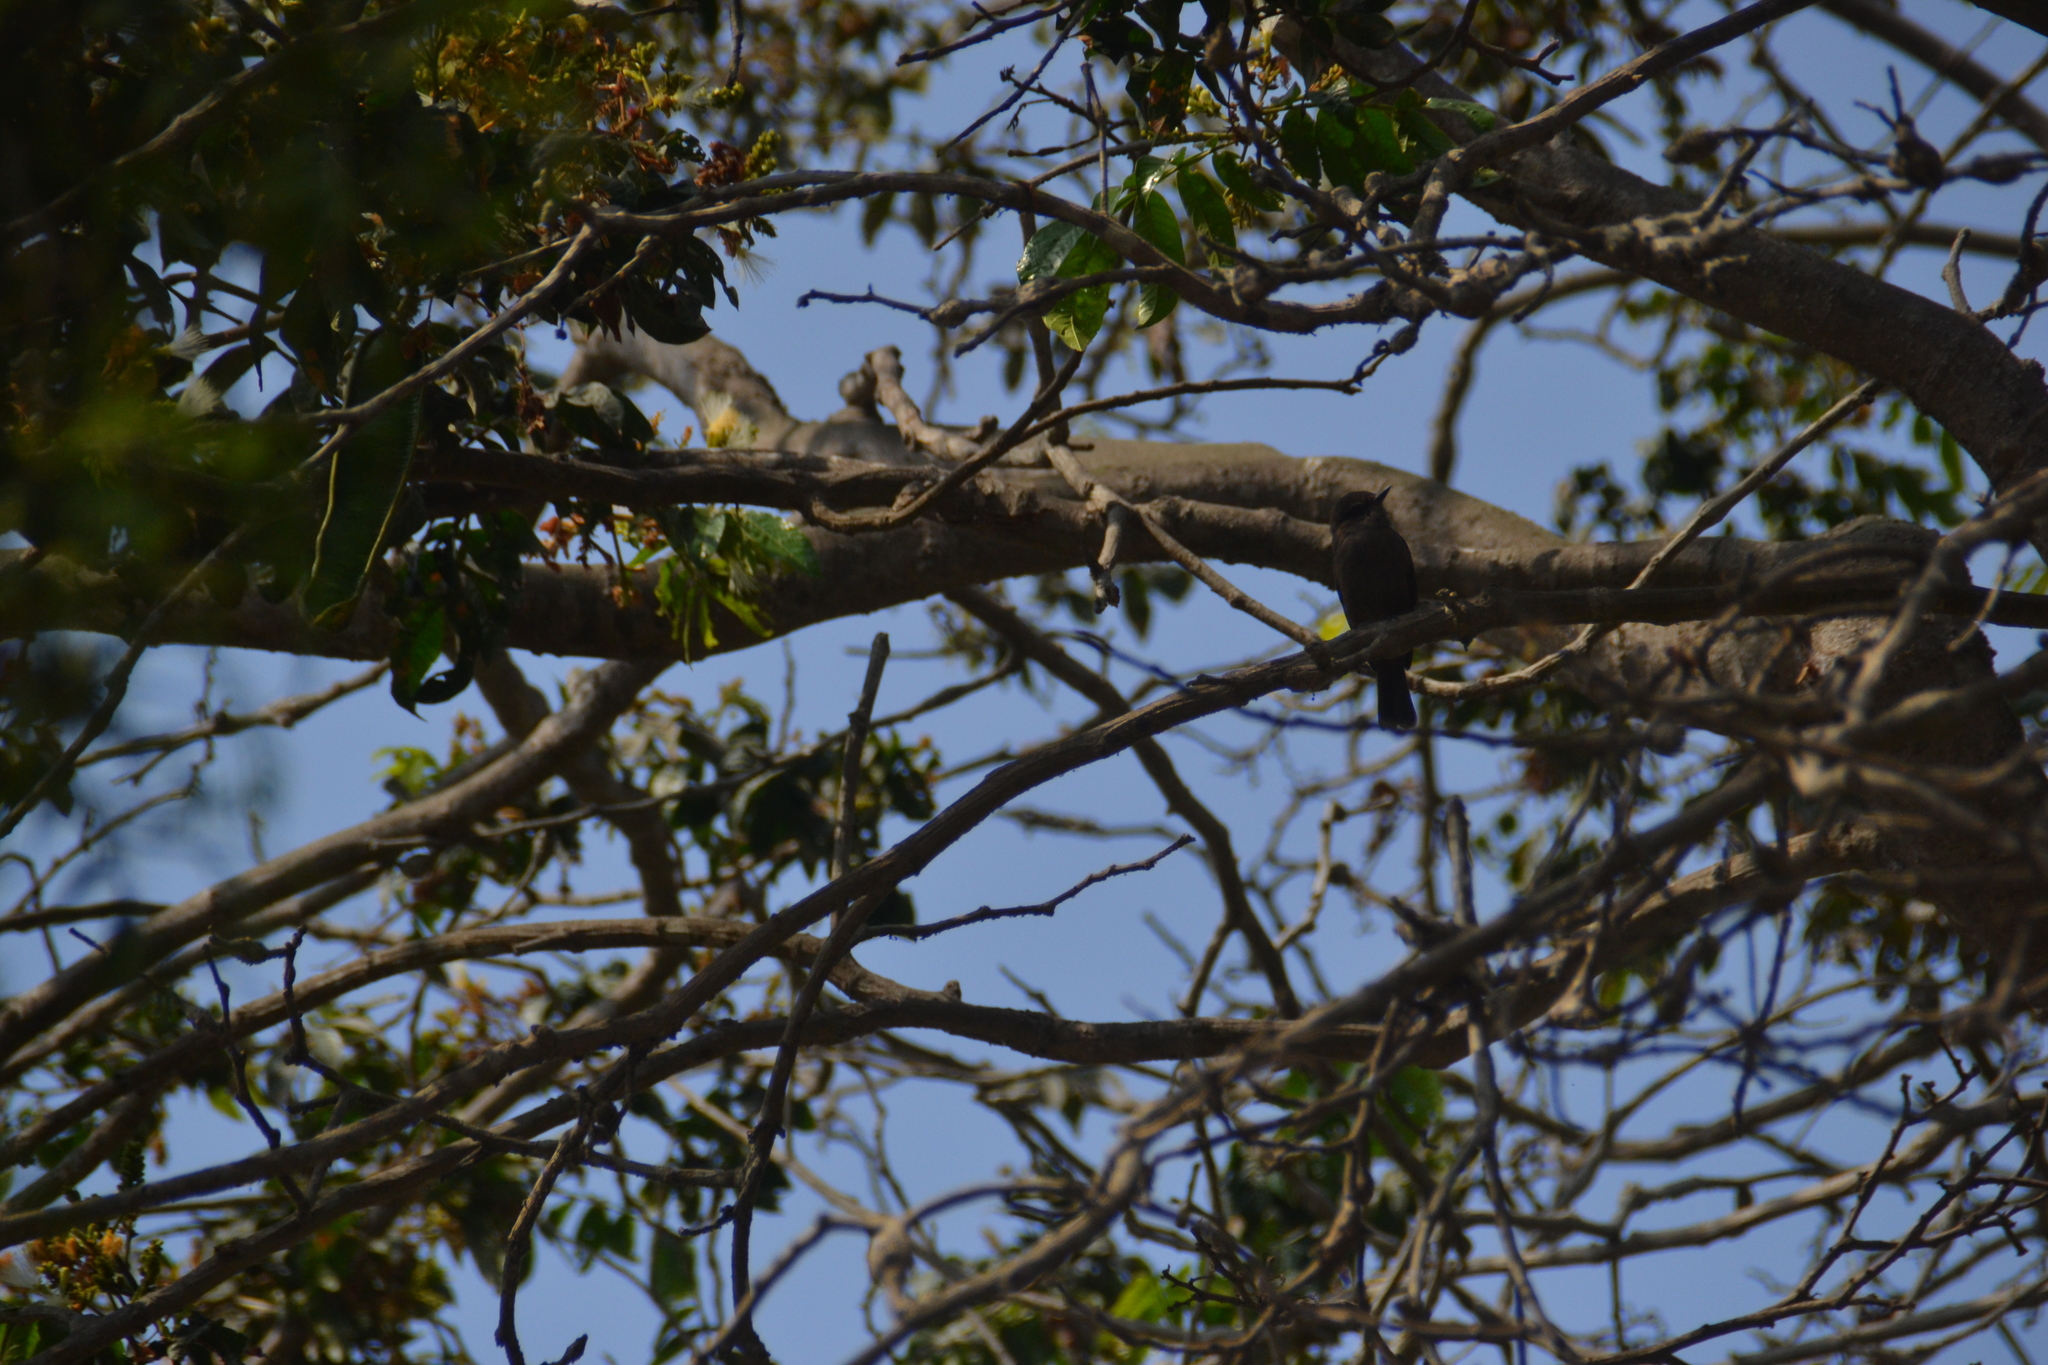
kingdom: Animalia
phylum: Chordata
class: Aves
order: Passeriformes
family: Tyrannidae
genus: Pyrocephalus
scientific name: Pyrocephalus rubinus
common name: Vermilion flycatcher
